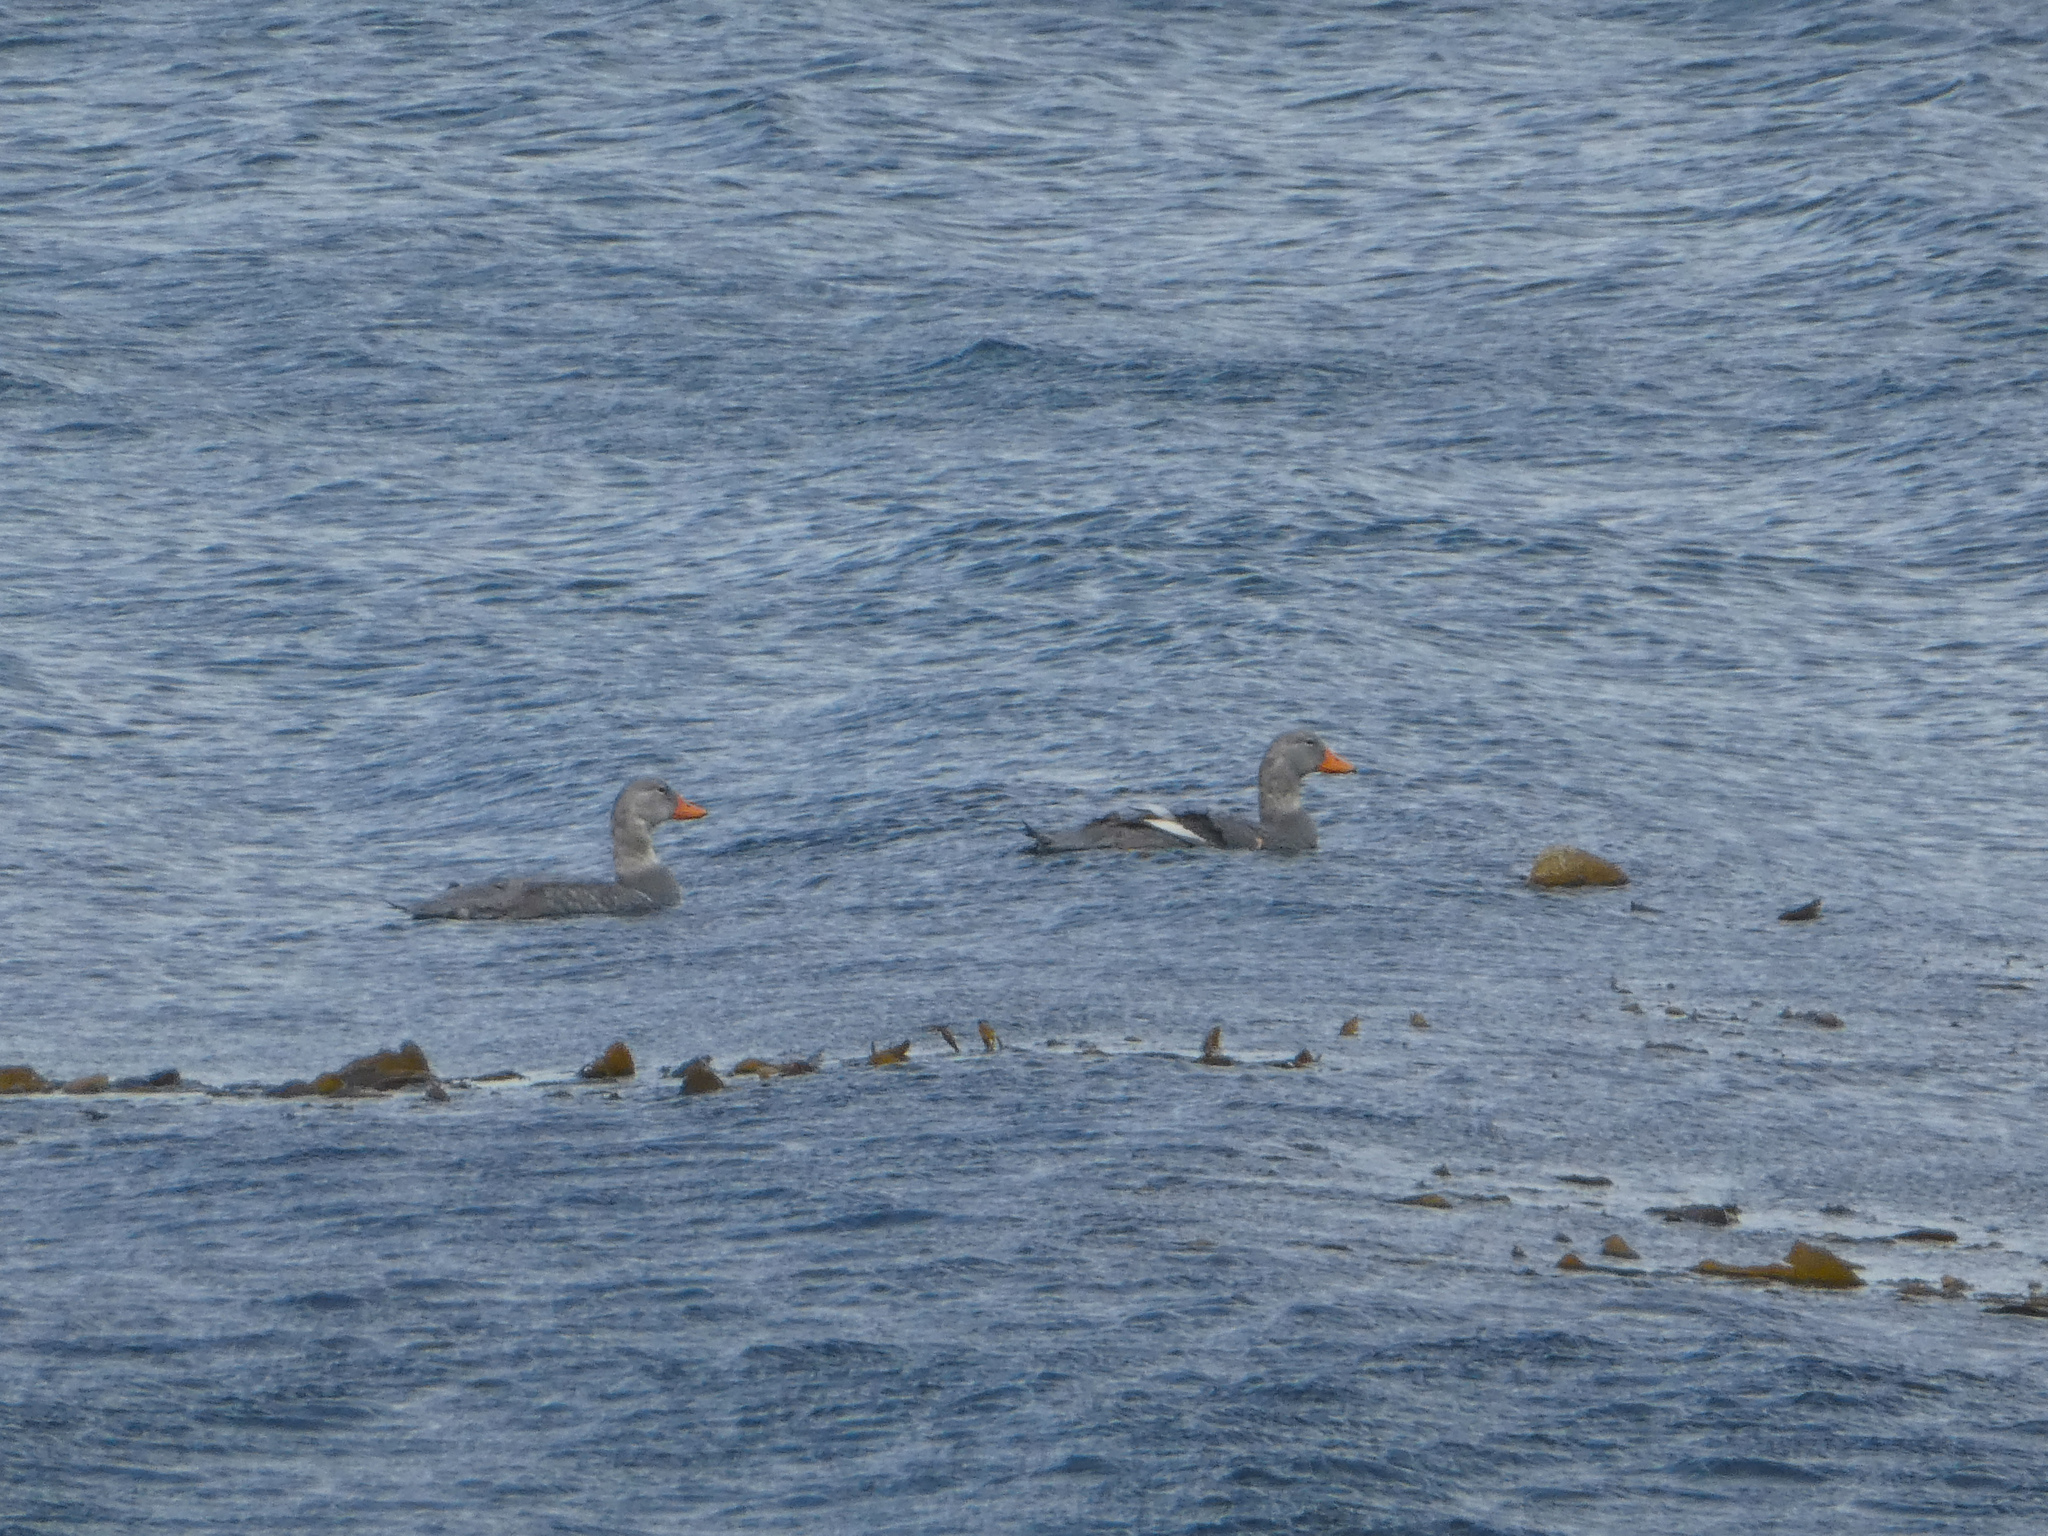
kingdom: Animalia
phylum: Chordata
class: Aves
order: Anseriformes
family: Anatidae
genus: Tachyeres
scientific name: Tachyeres pteneres
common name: Fuegian steamer duck
